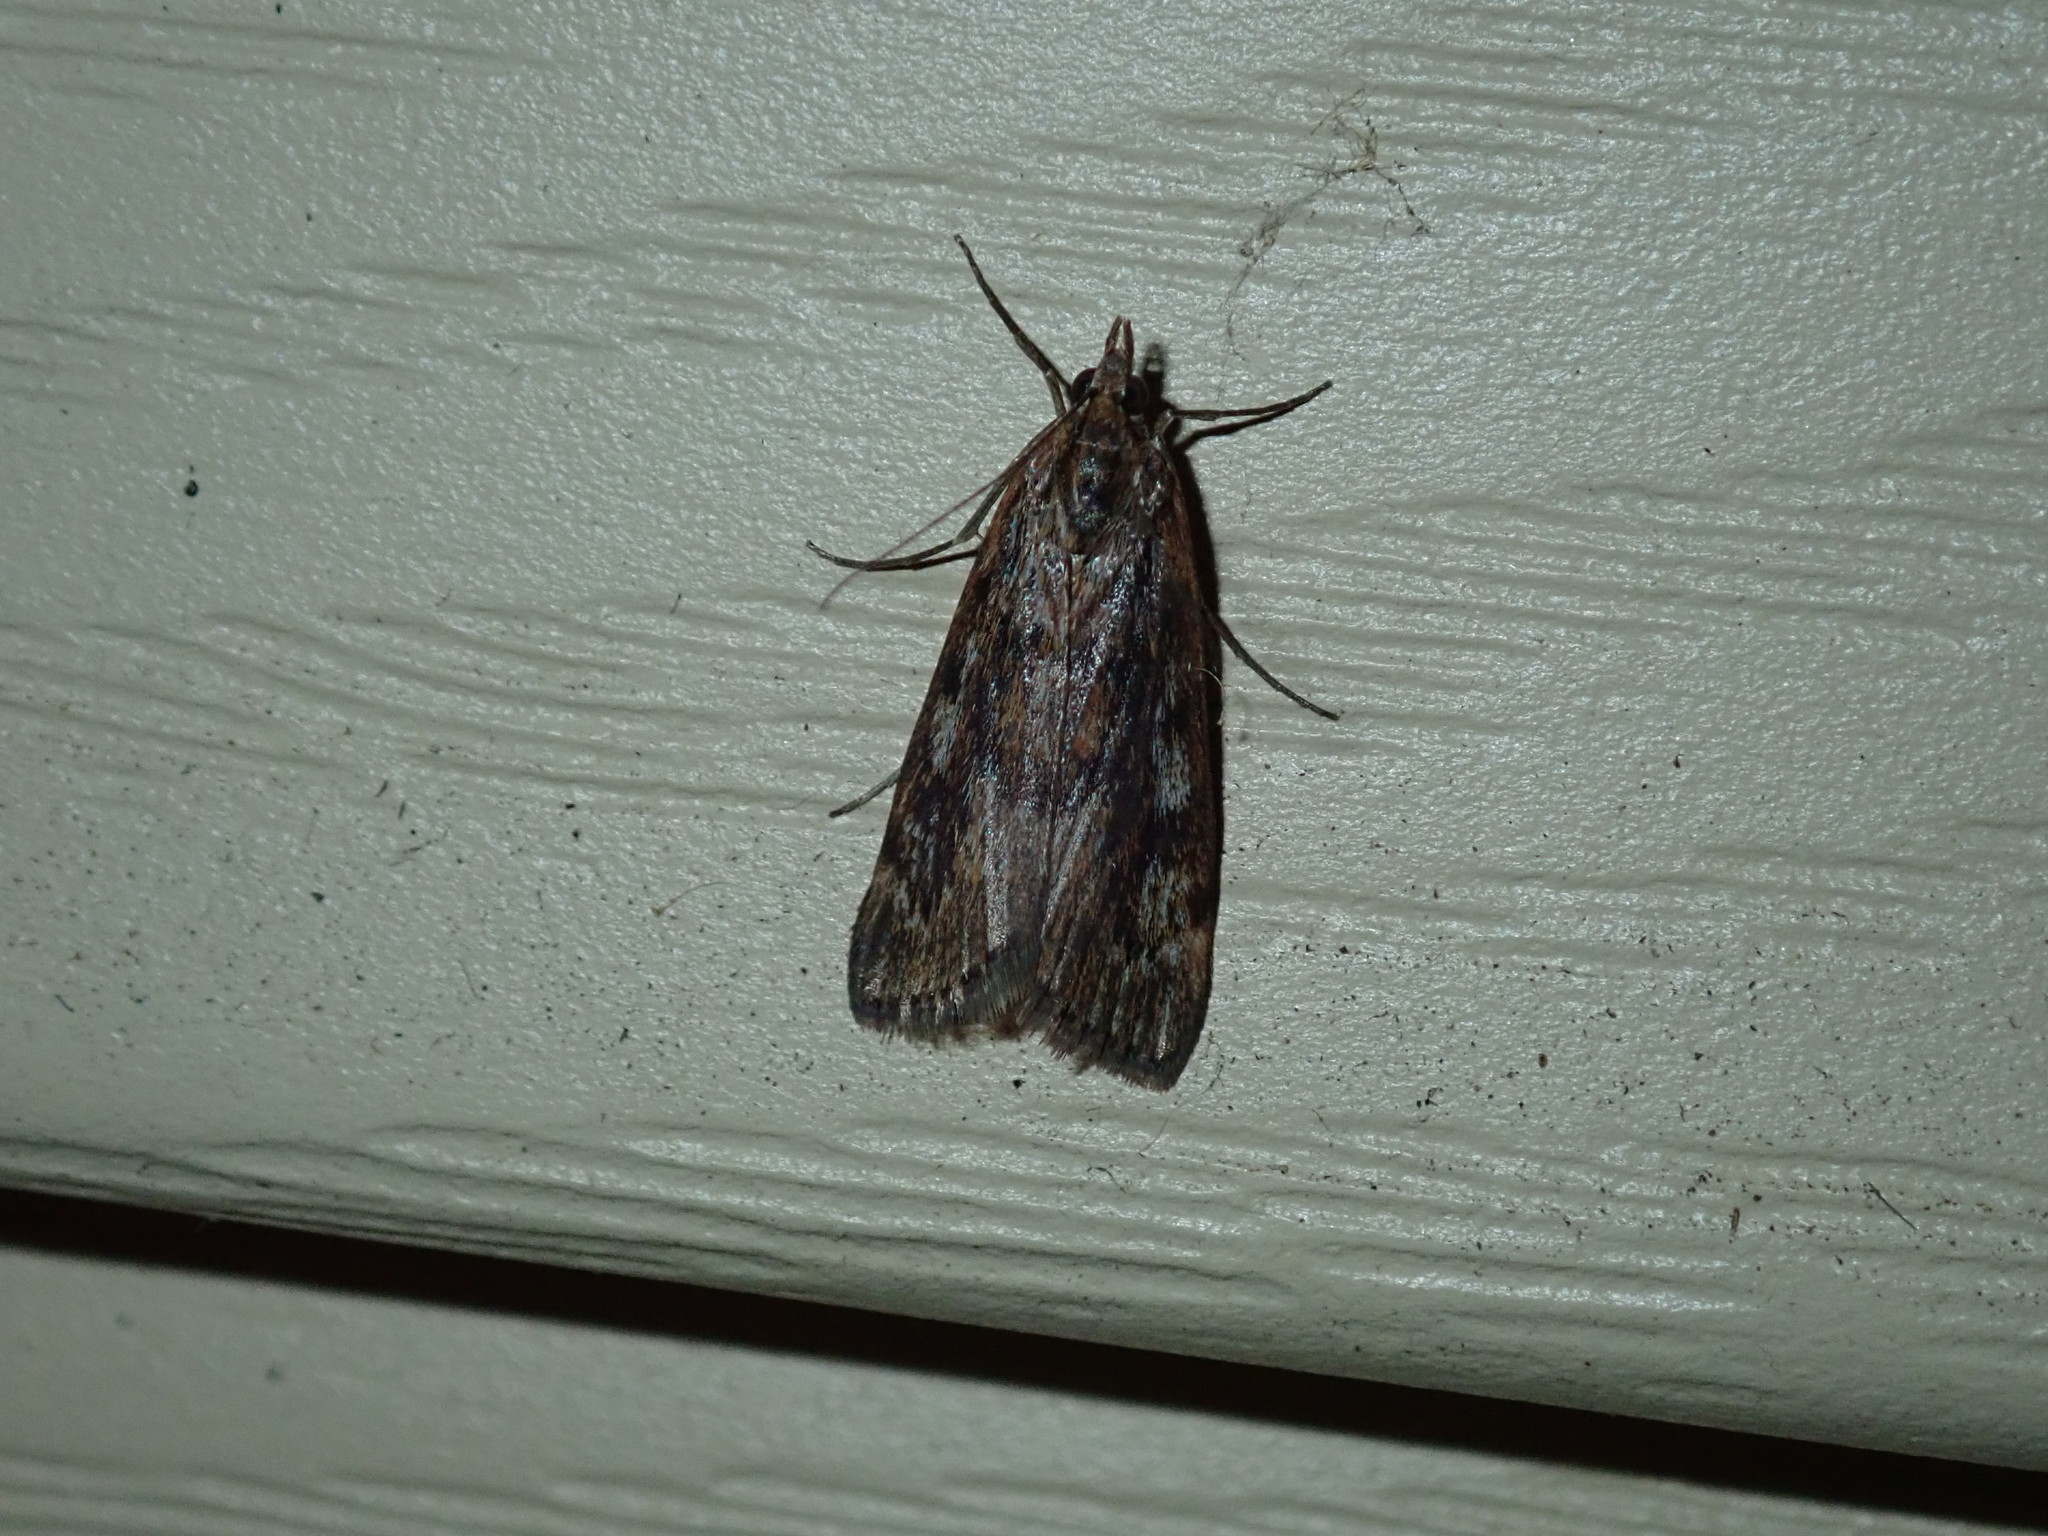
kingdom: Animalia
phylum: Arthropoda
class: Insecta
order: Lepidoptera
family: Crambidae
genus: Achyra
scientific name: Achyra affinitalis
